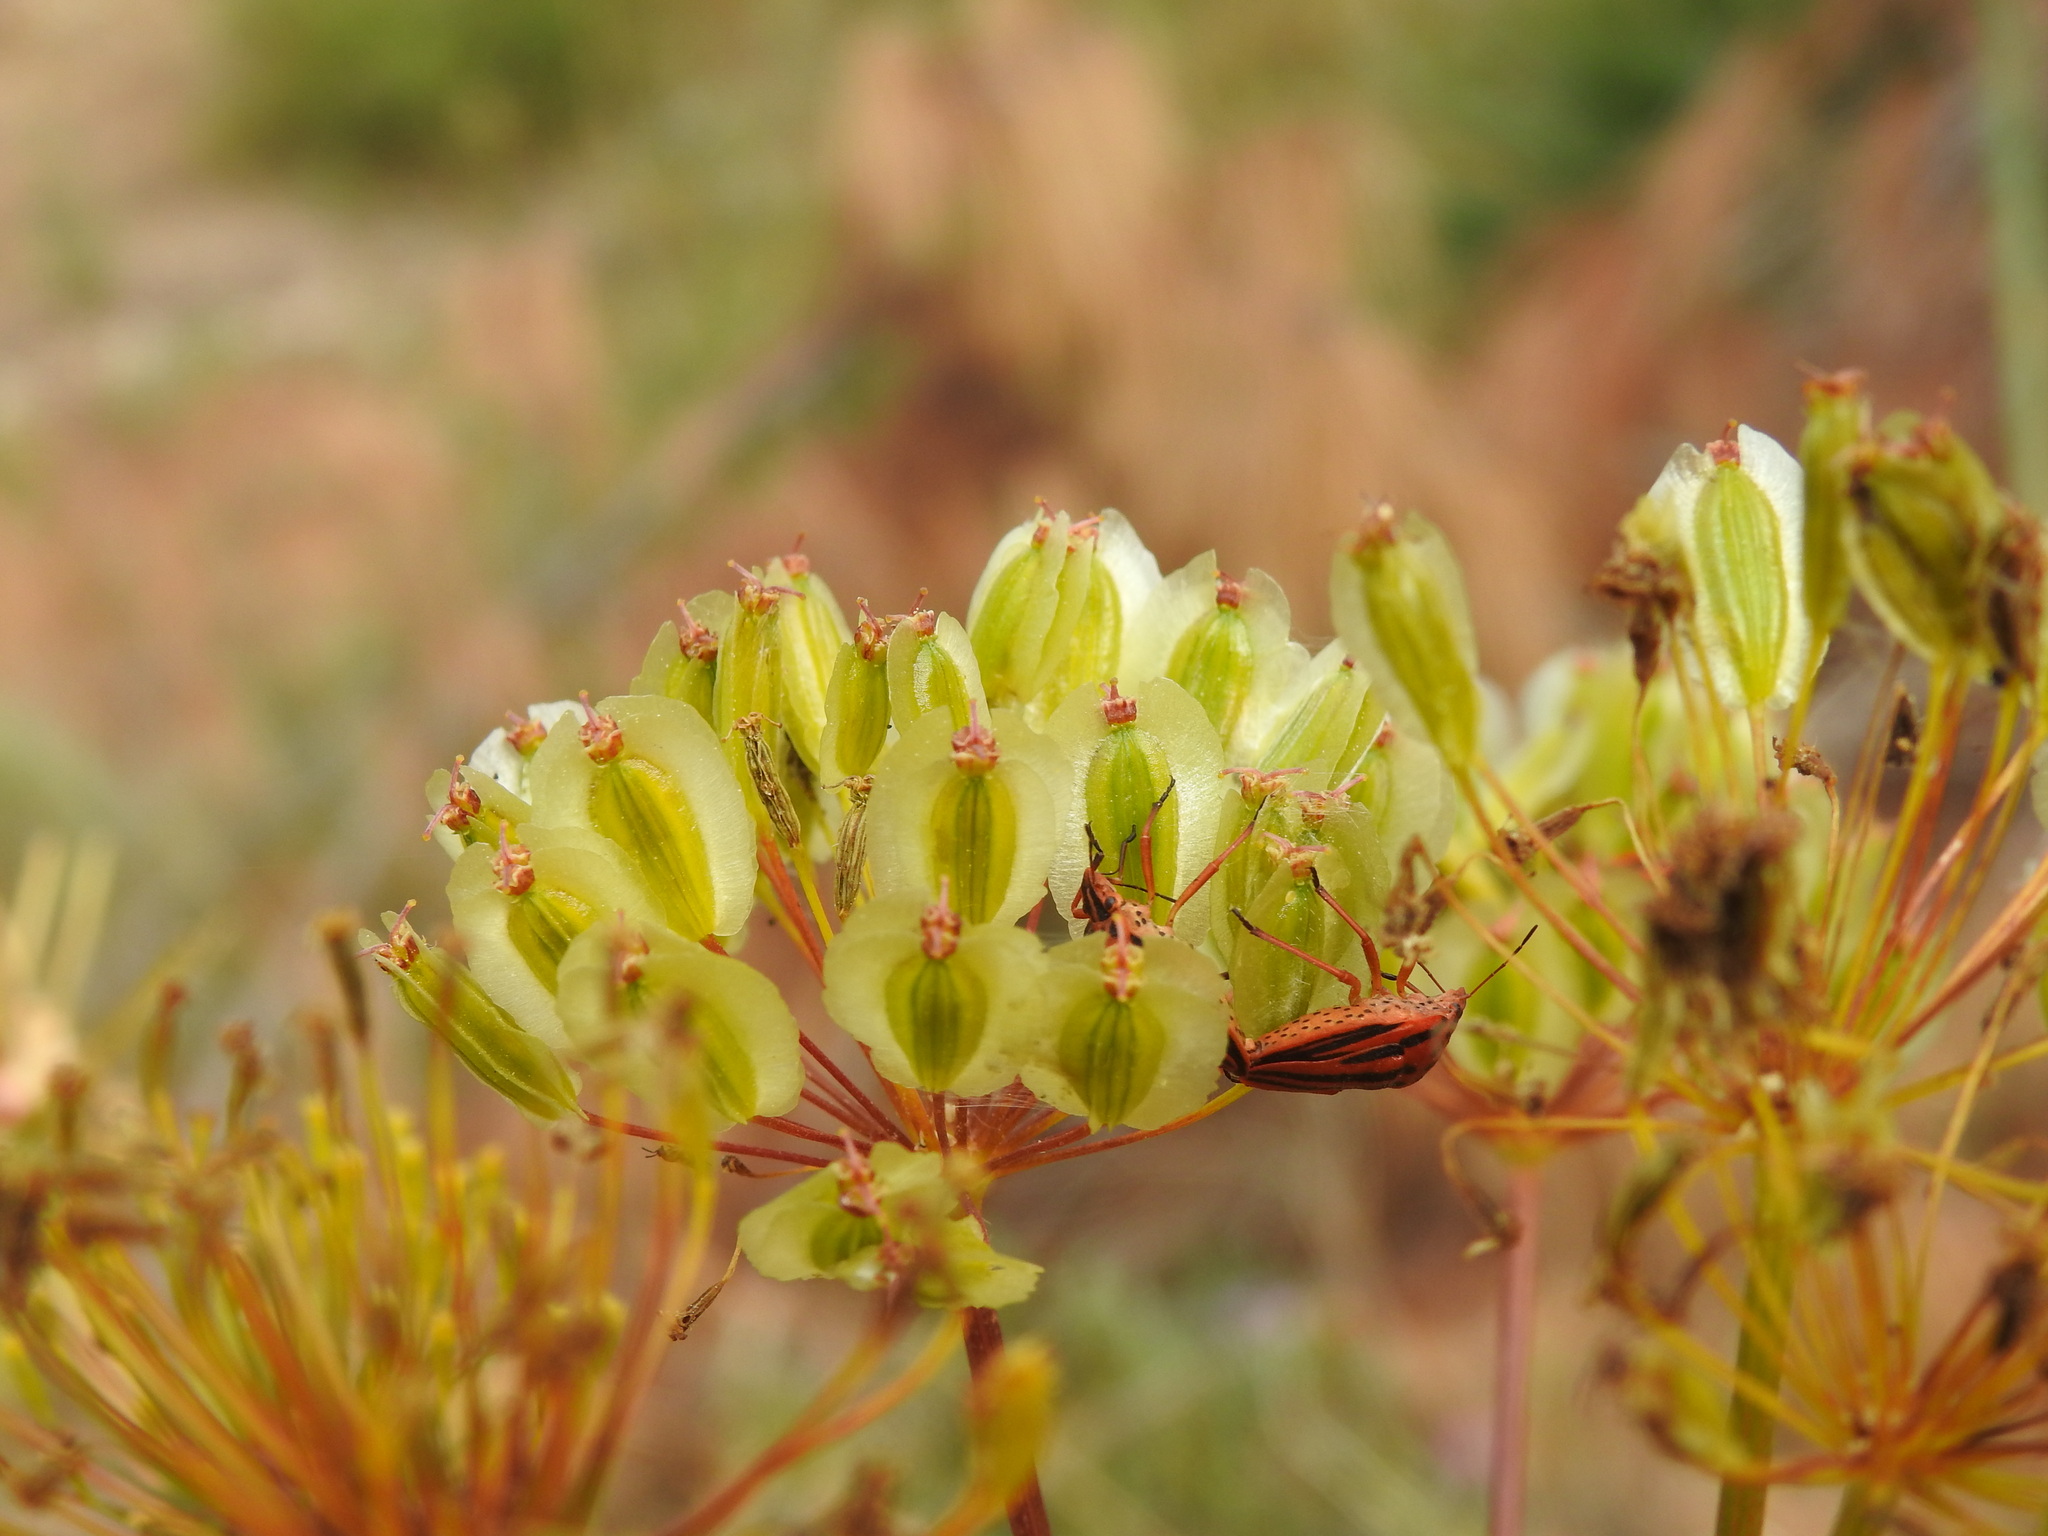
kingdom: Plantae
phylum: Tracheophyta
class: Magnoliopsida
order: Apiales
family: Apiaceae
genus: Thapsia
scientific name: Thapsia villosa
